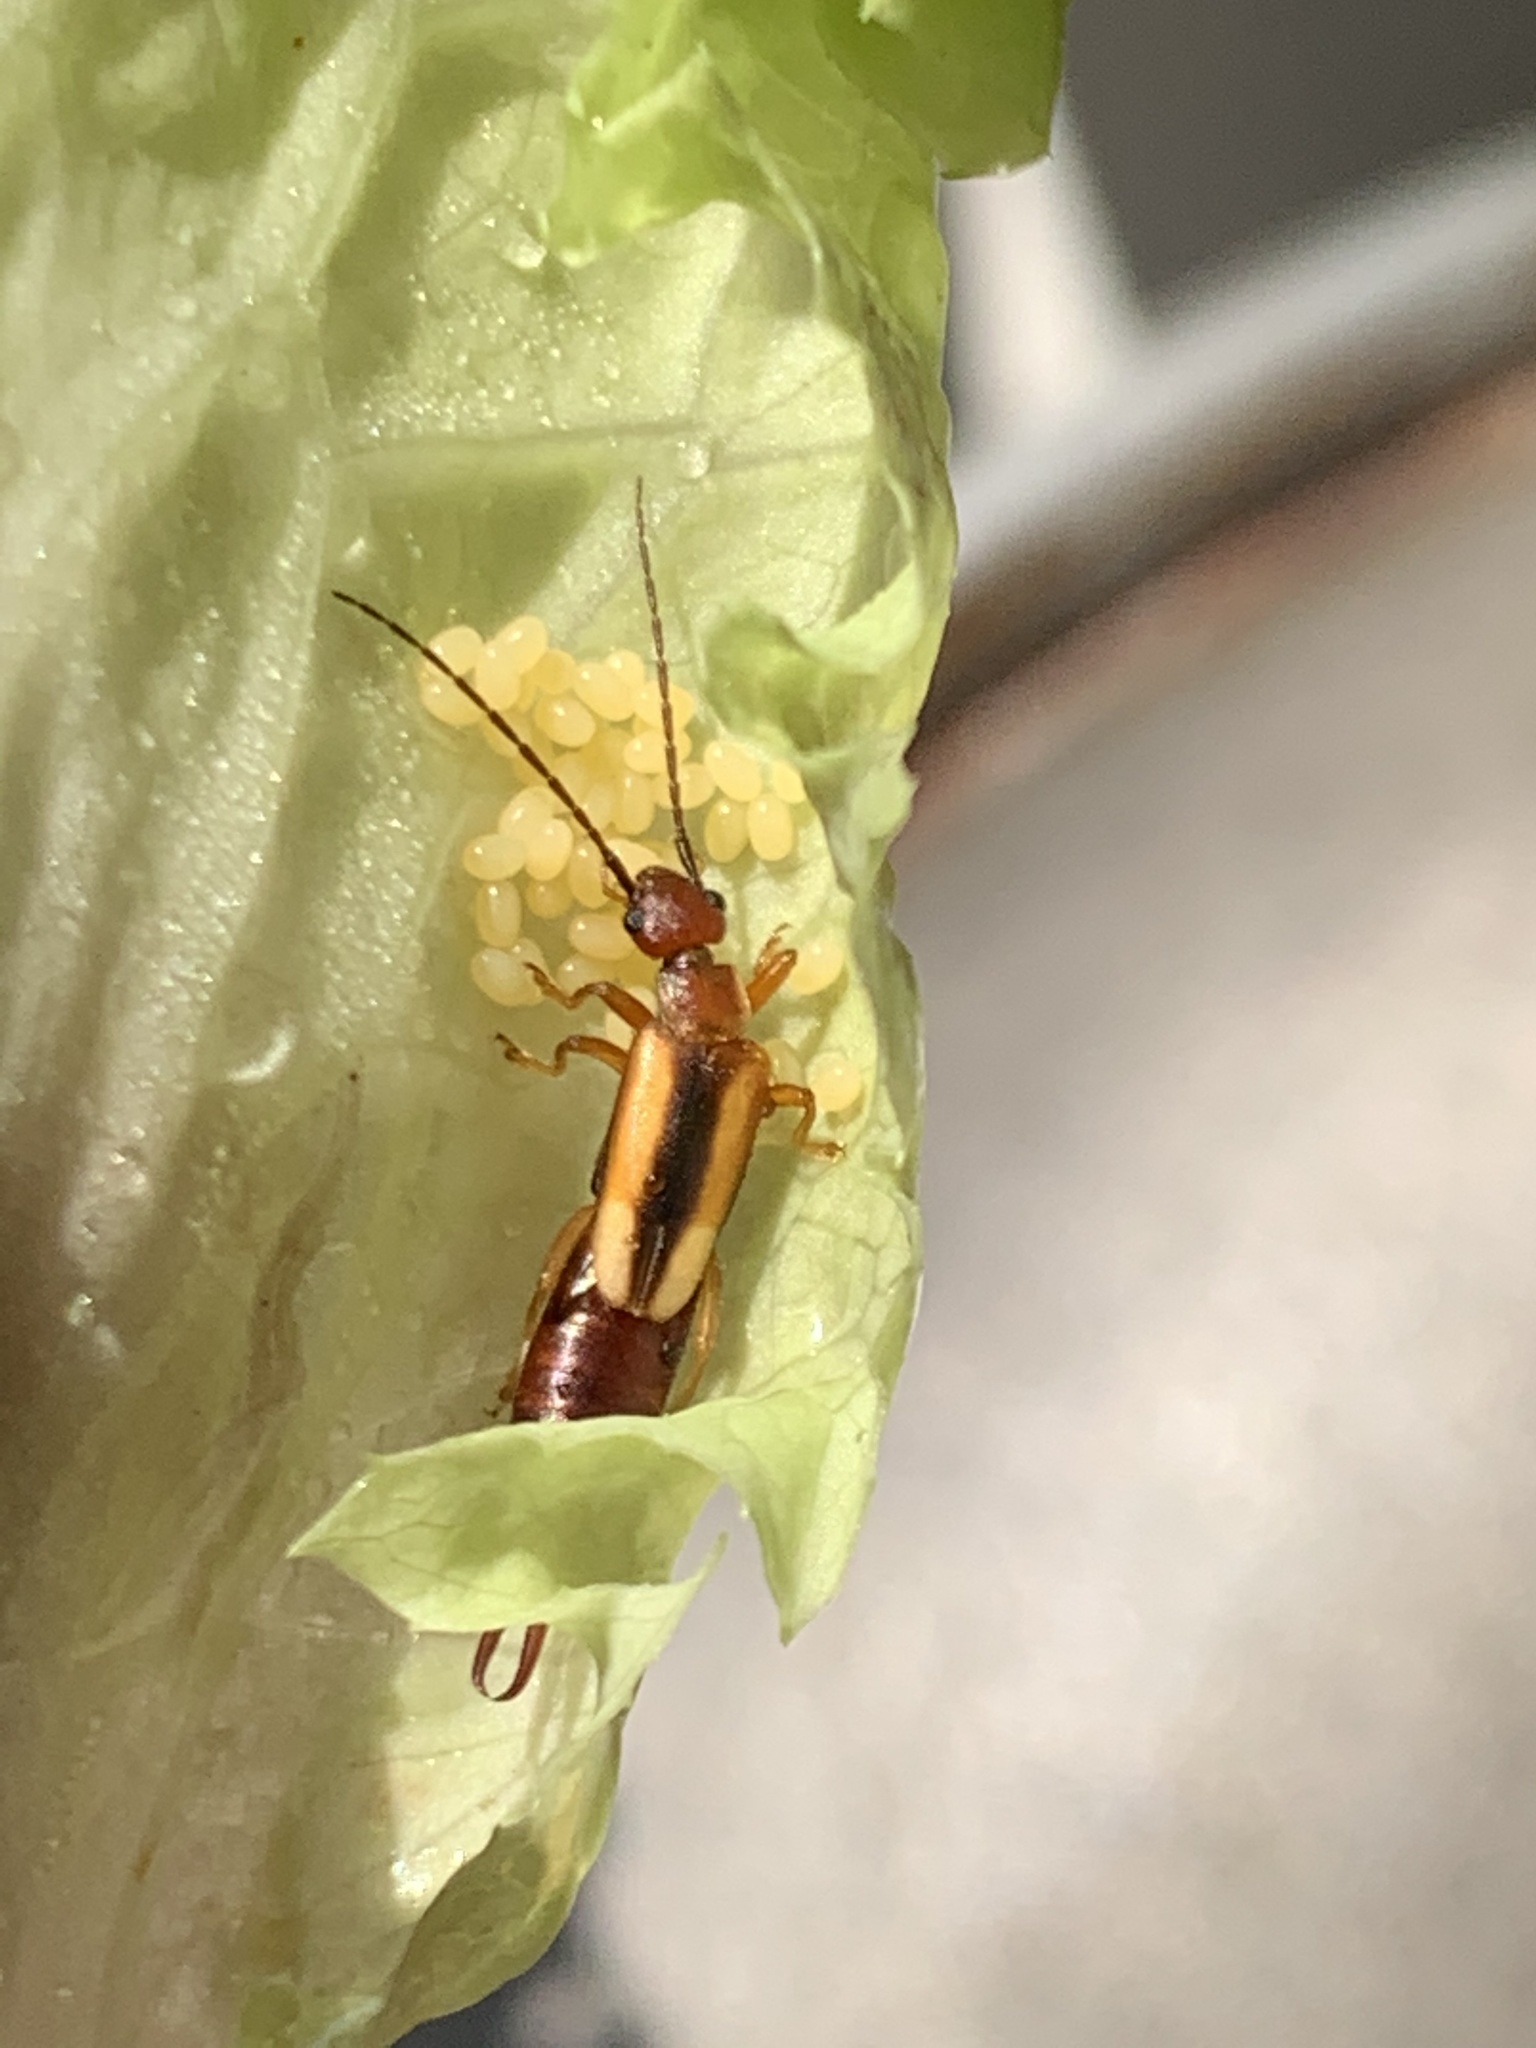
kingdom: Animalia
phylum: Arthropoda
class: Insecta
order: Dermaptera
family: Forficulidae
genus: Doru
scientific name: Doru
